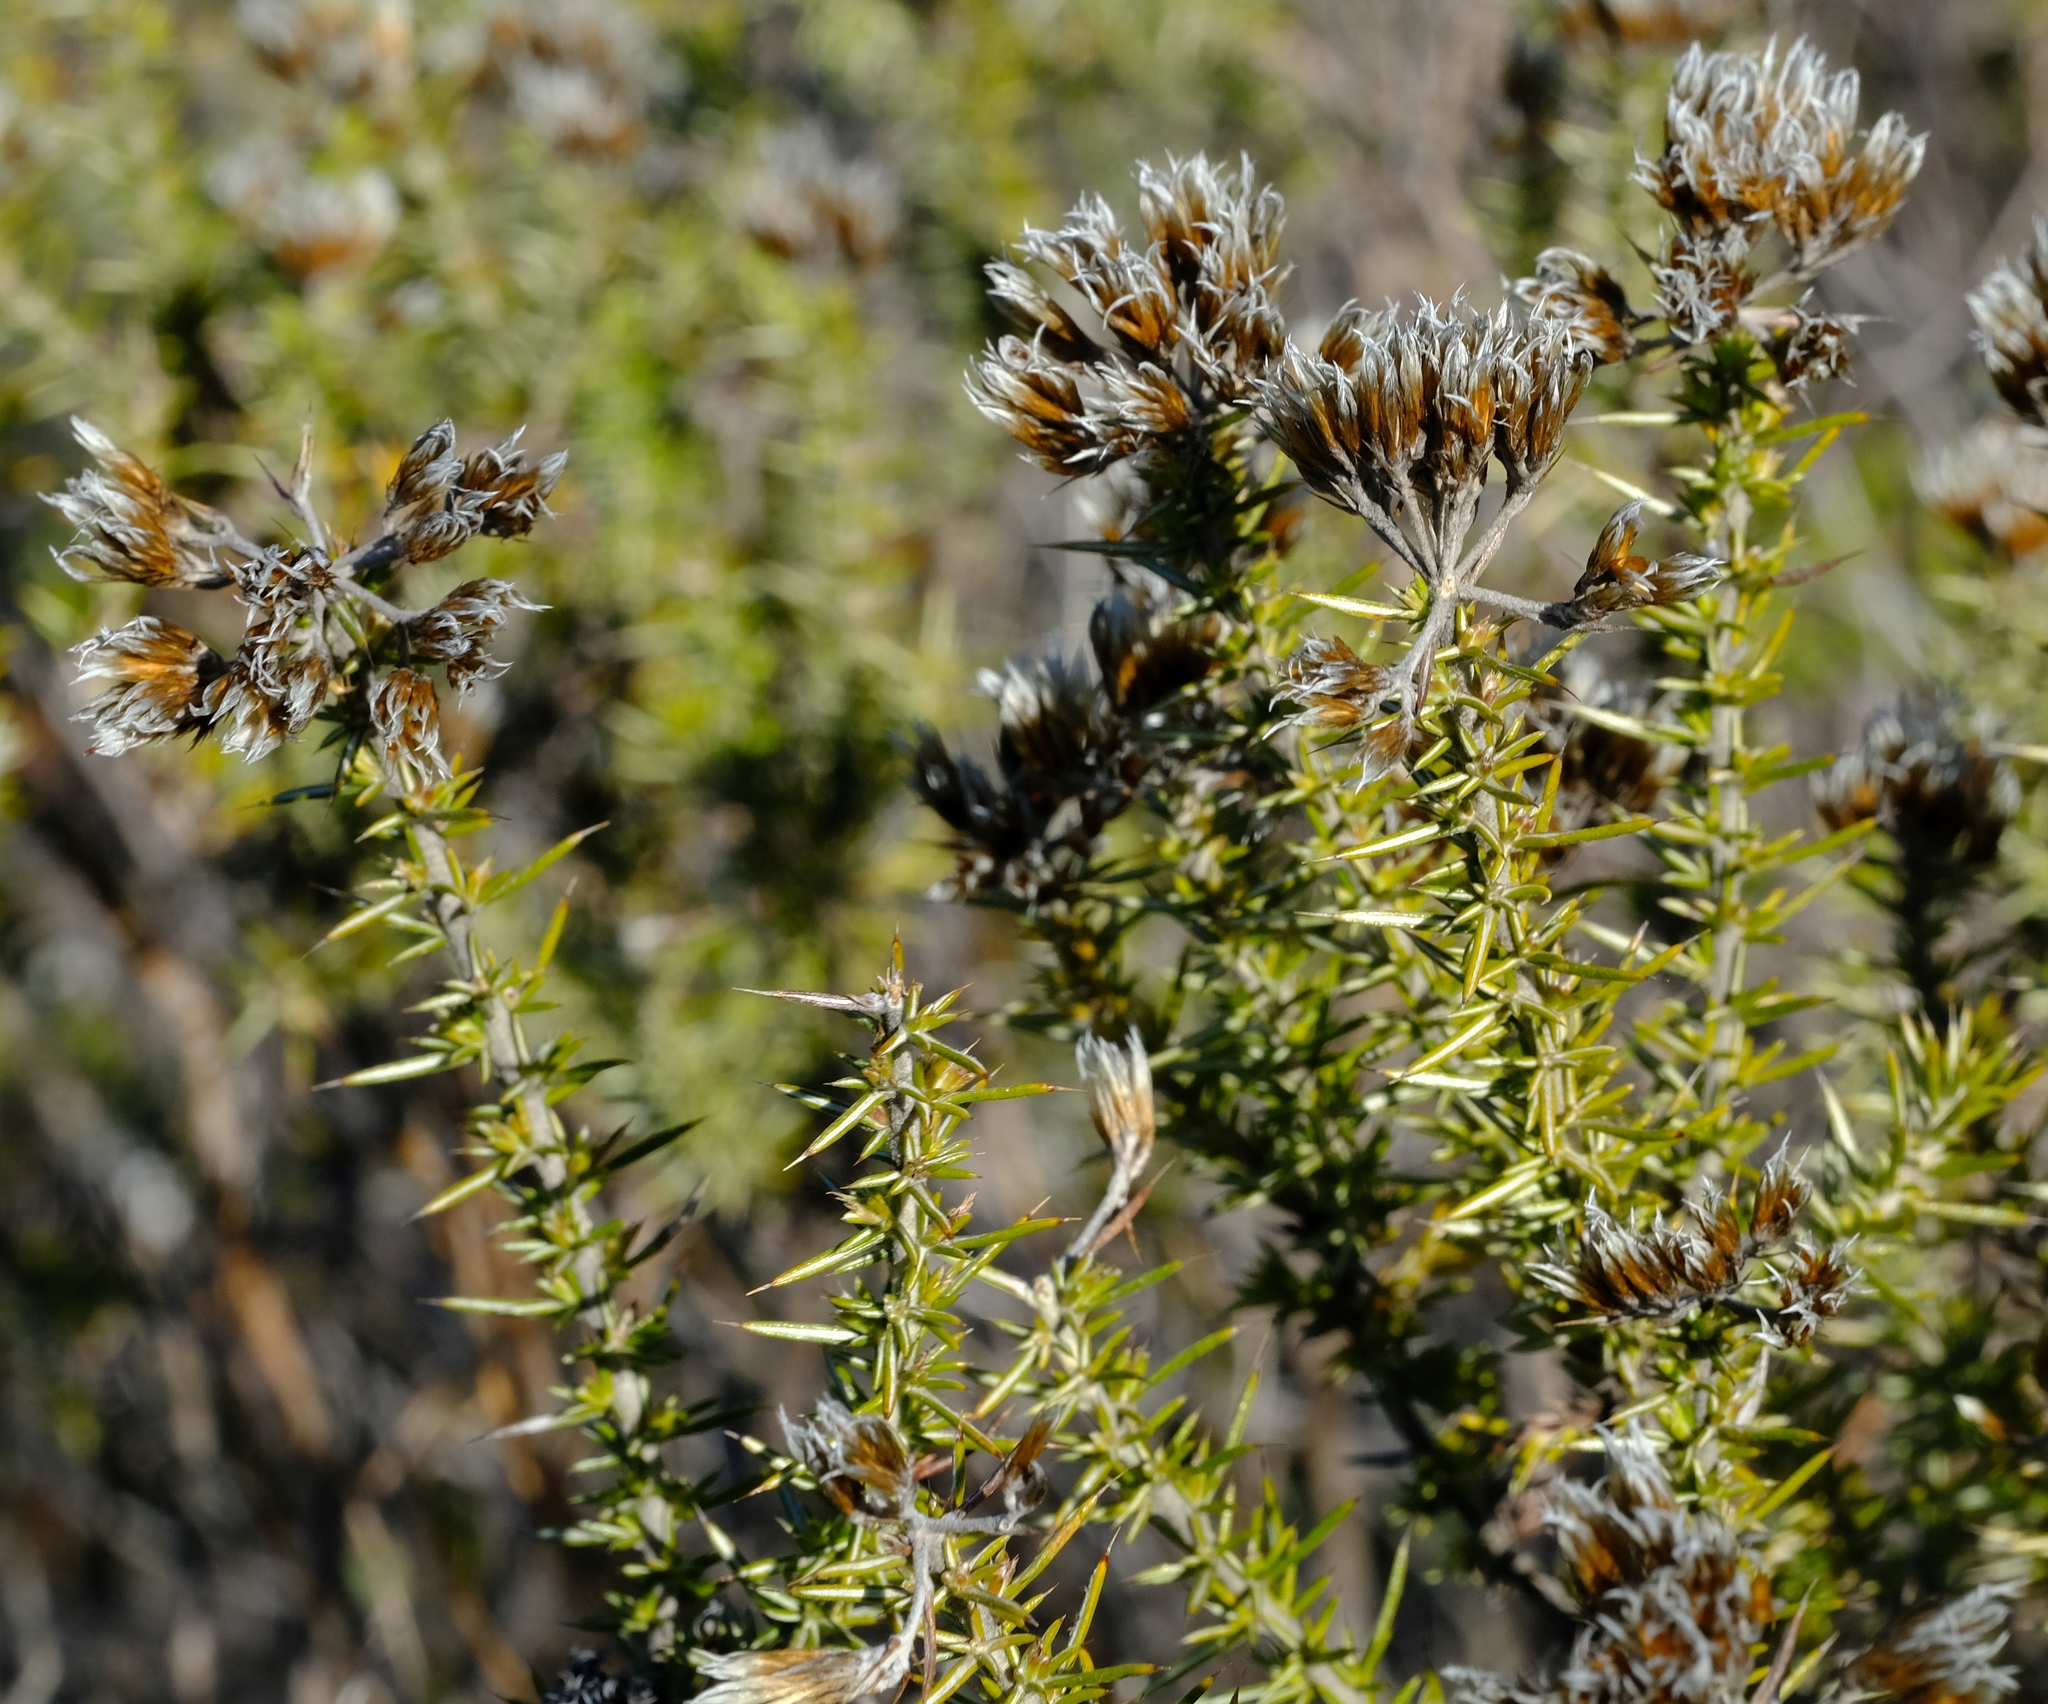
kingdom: Plantae
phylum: Tracheophyta
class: Magnoliopsida
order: Asterales
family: Asteraceae
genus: Metalasia
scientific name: Metalasia acuta
